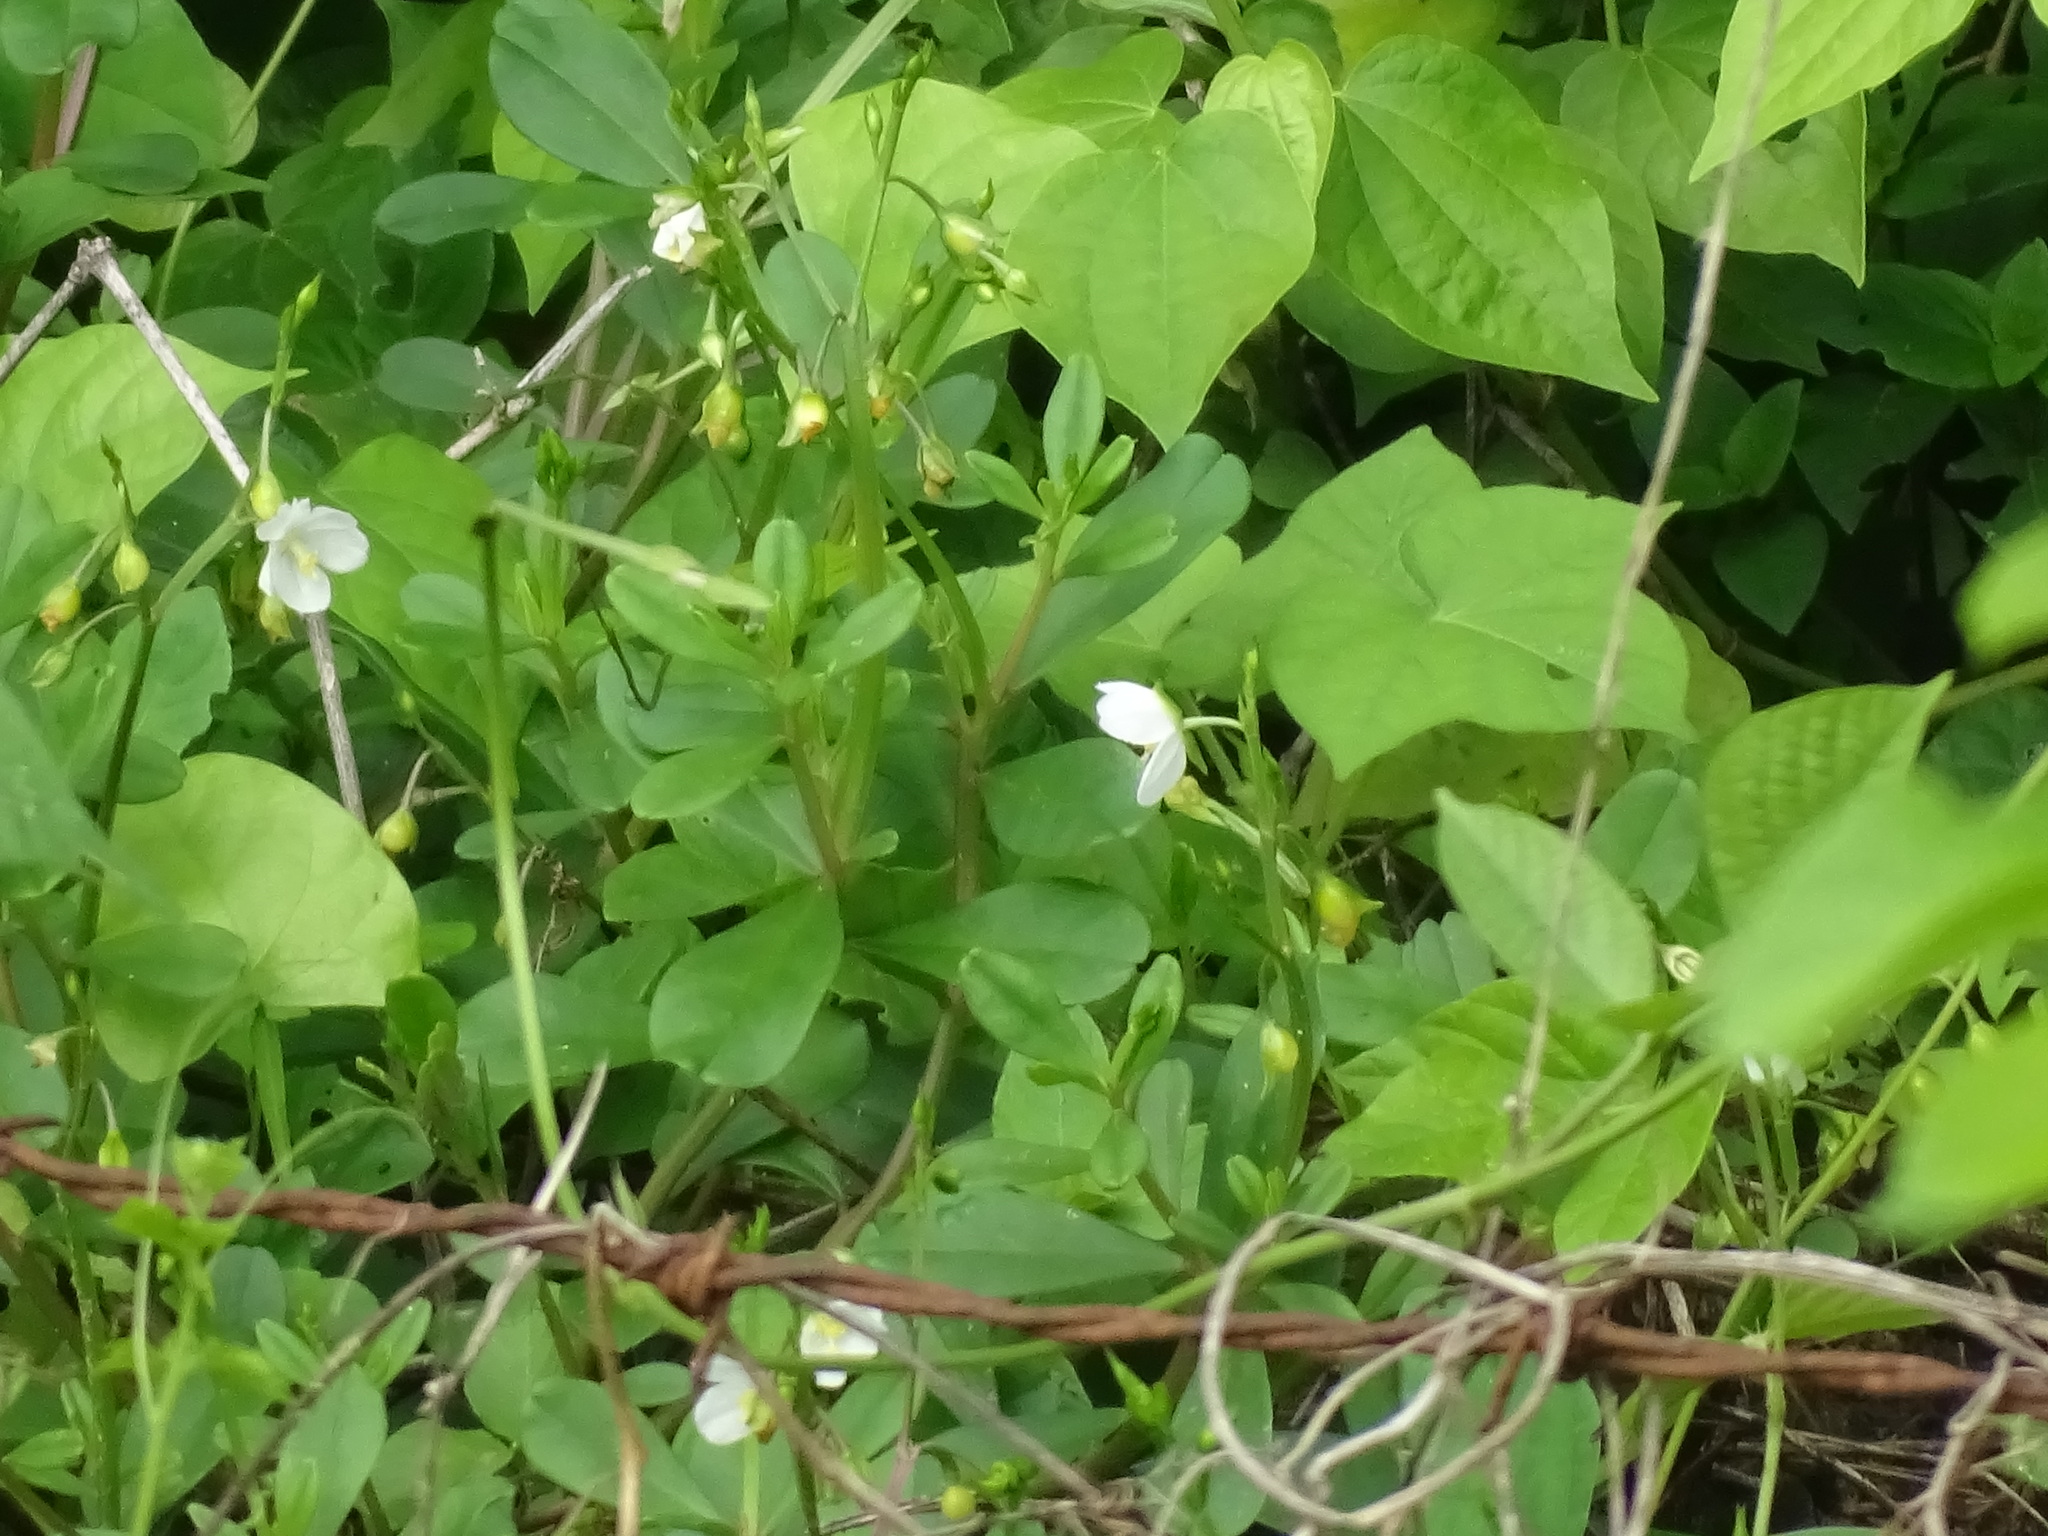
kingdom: Plantae
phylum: Tracheophyta
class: Magnoliopsida
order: Caryophyllales
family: Talinaceae
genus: Talinum
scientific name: Talinum fruticosum
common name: Verdolaga-francesa
